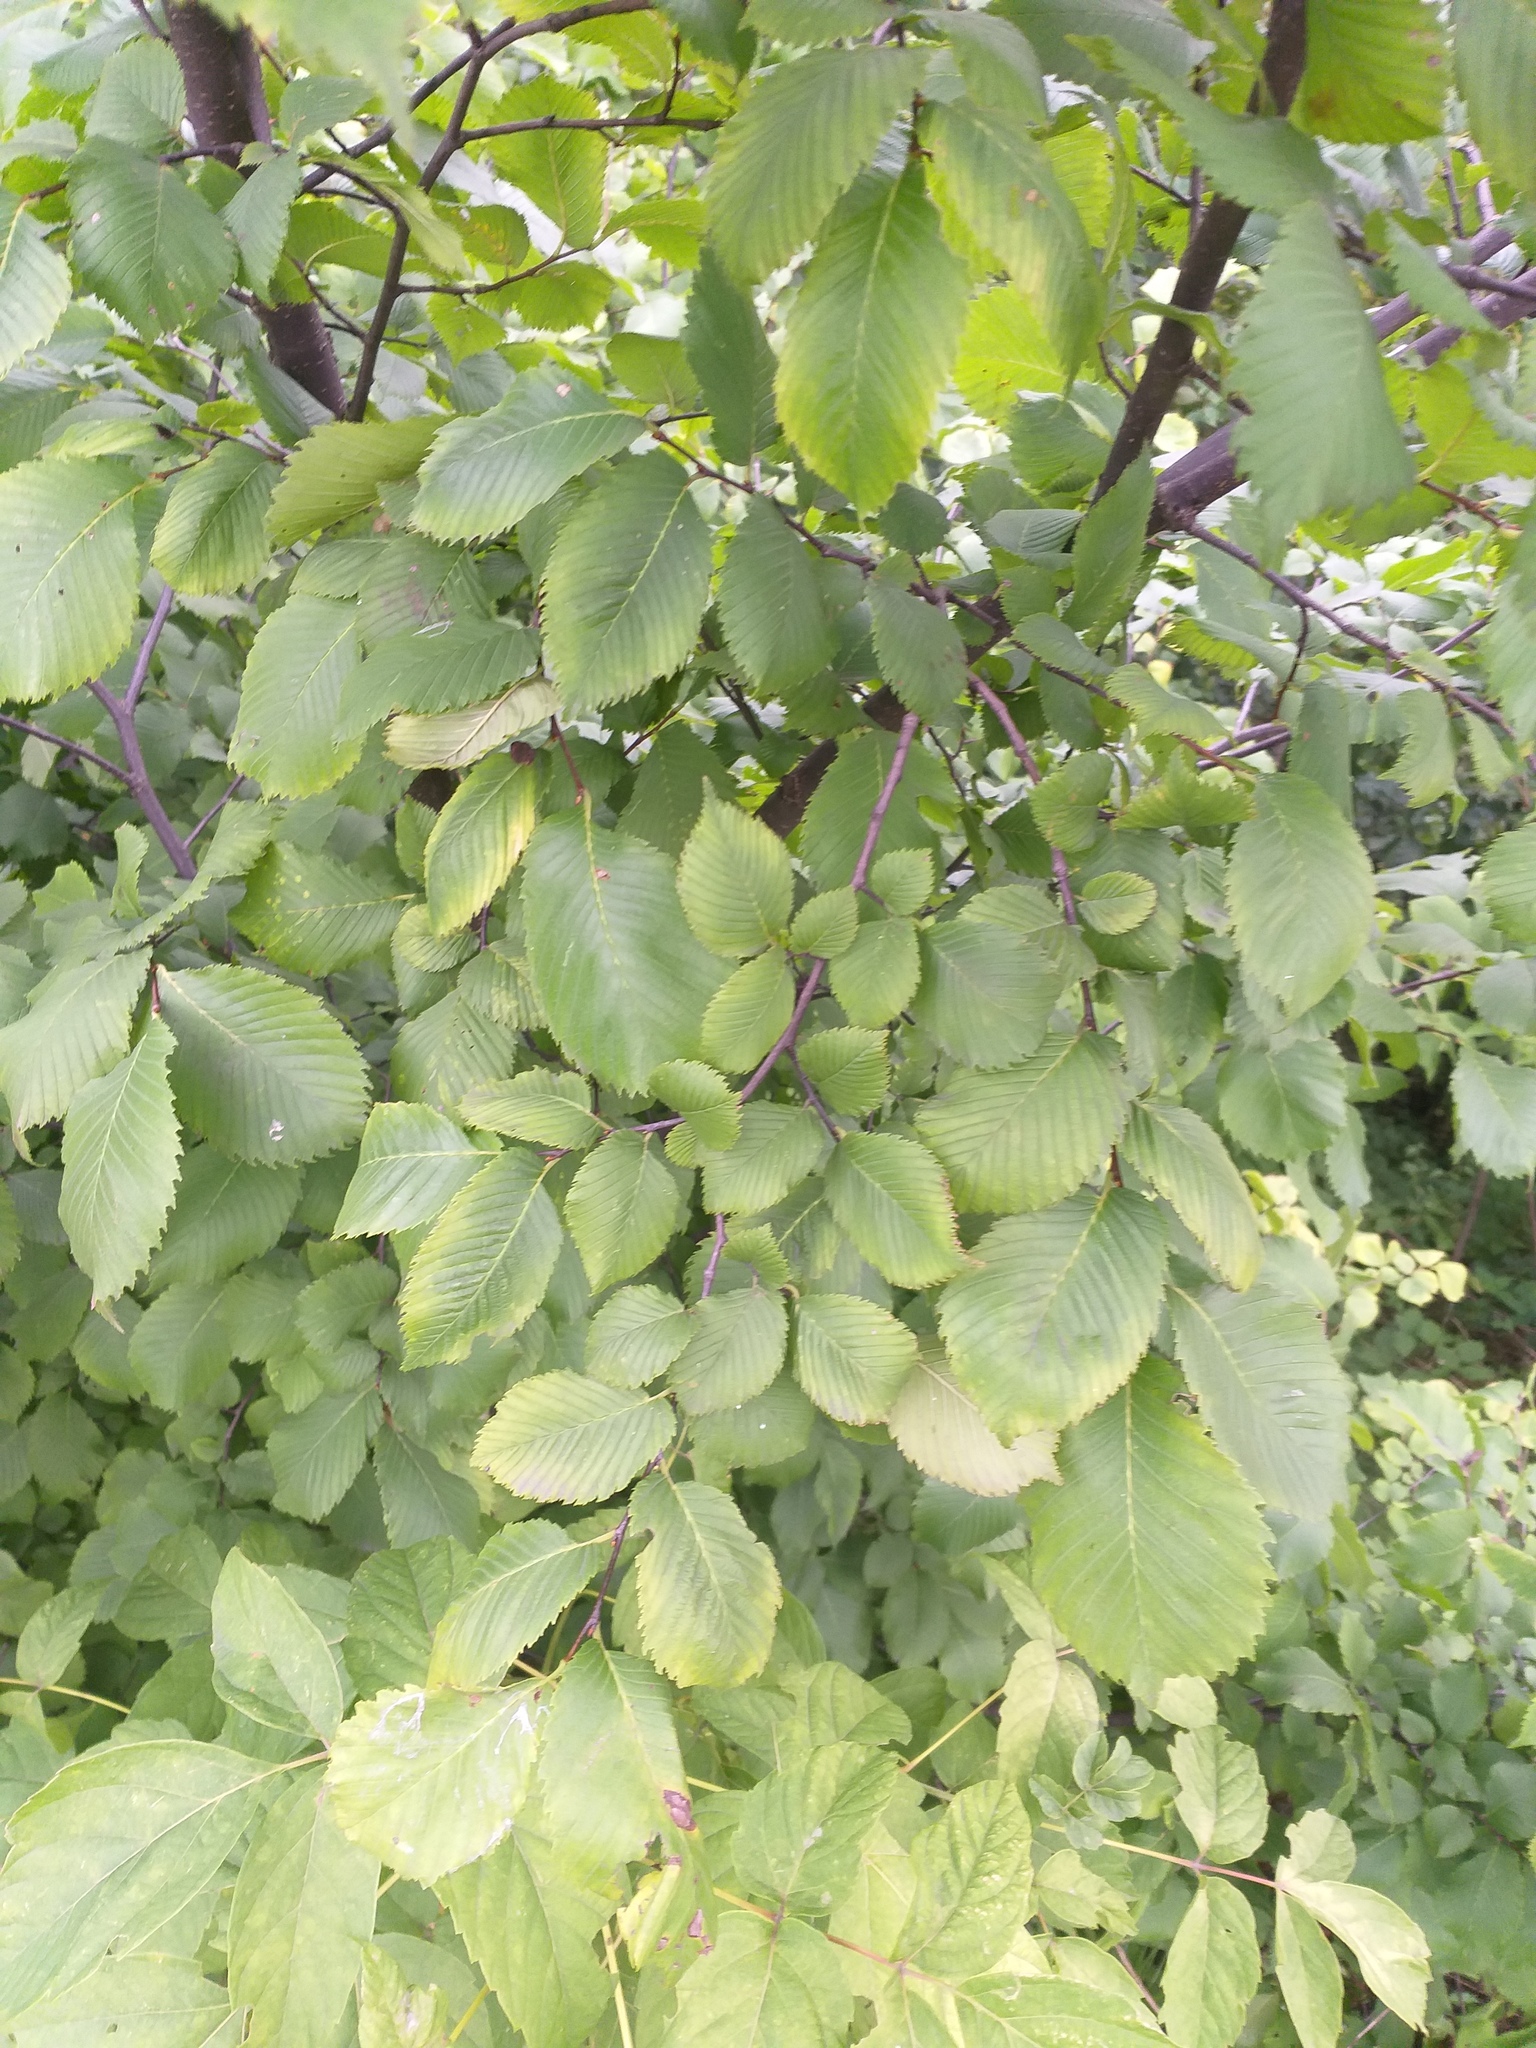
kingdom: Plantae
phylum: Tracheophyta
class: Magnoliopsida
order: Rosales
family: Ulmaceae
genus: Ulmus
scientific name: Ulmus laevis
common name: European white-elm
